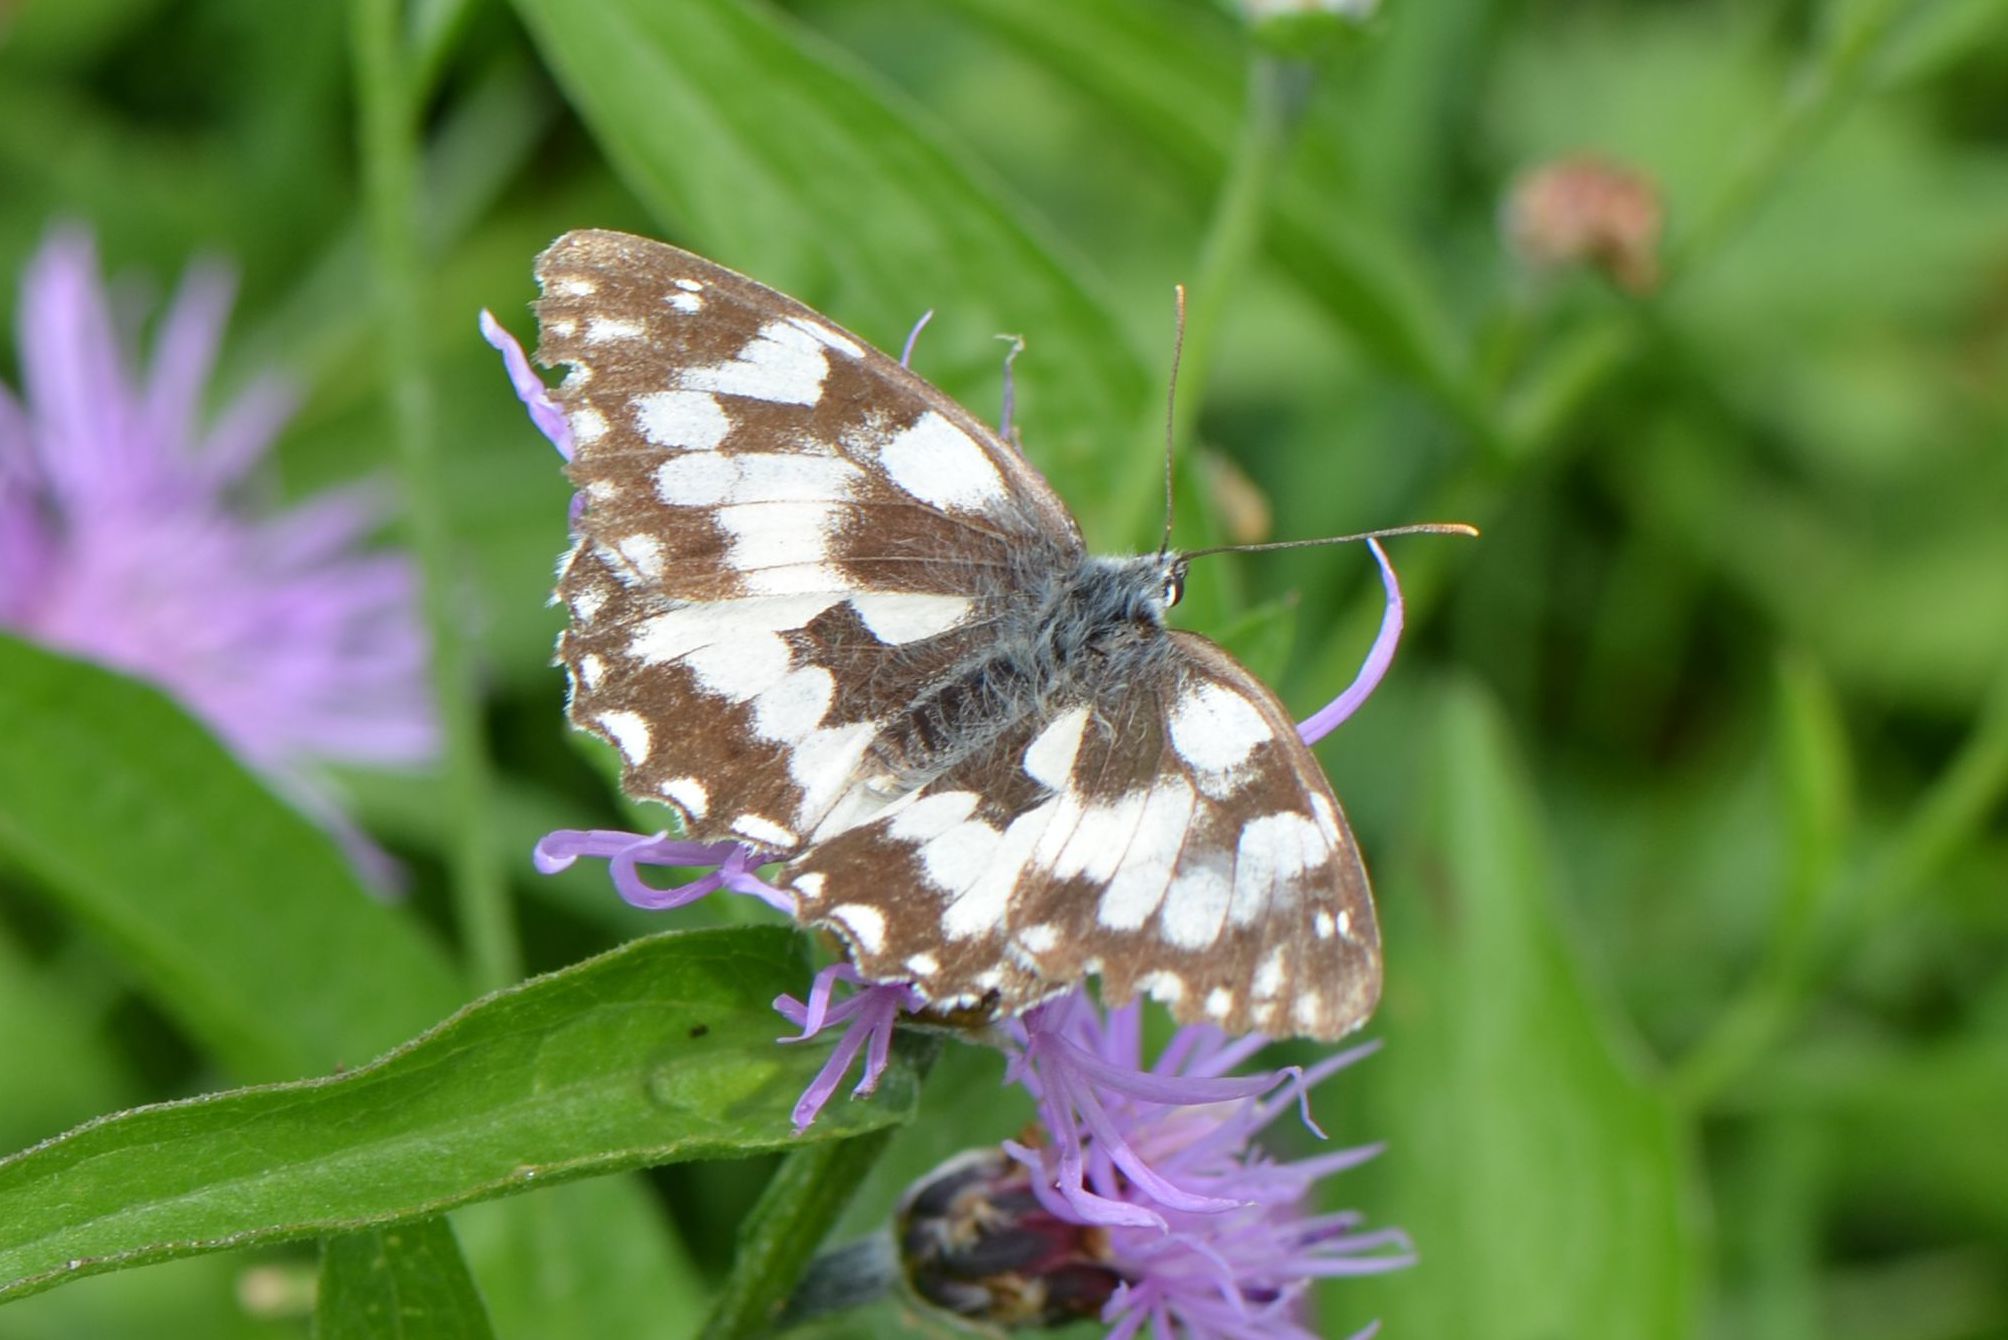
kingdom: Animalia
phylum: Arthropoda
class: Insecta
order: Lepidoptera
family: Nymphalidae
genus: Melanargia
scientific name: Melanargia galathea
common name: Marbled white
